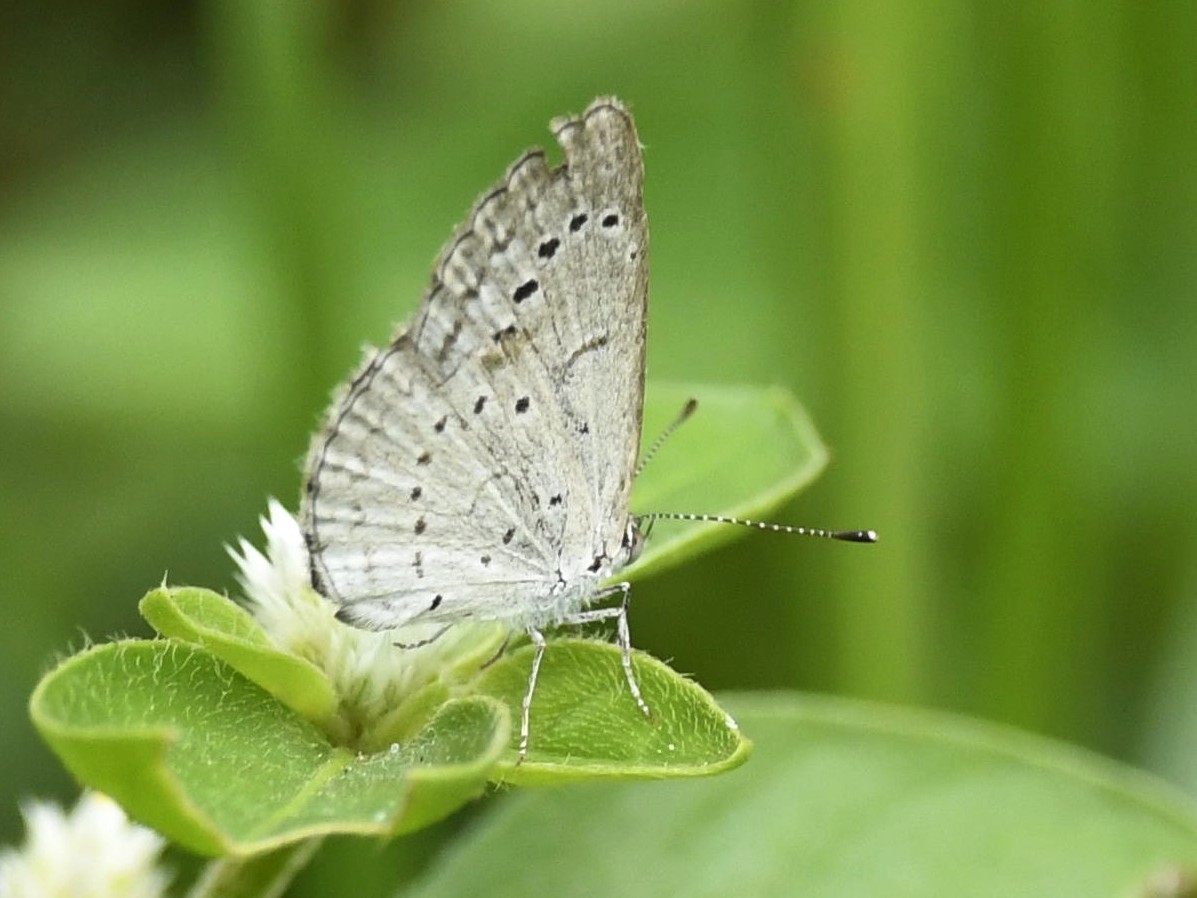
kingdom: Animalia
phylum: Arthropoda
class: Insecta
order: Lepidoptera
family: Lycaenidae
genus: Pseudozizeeria
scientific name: Pseudozizeeria maha
